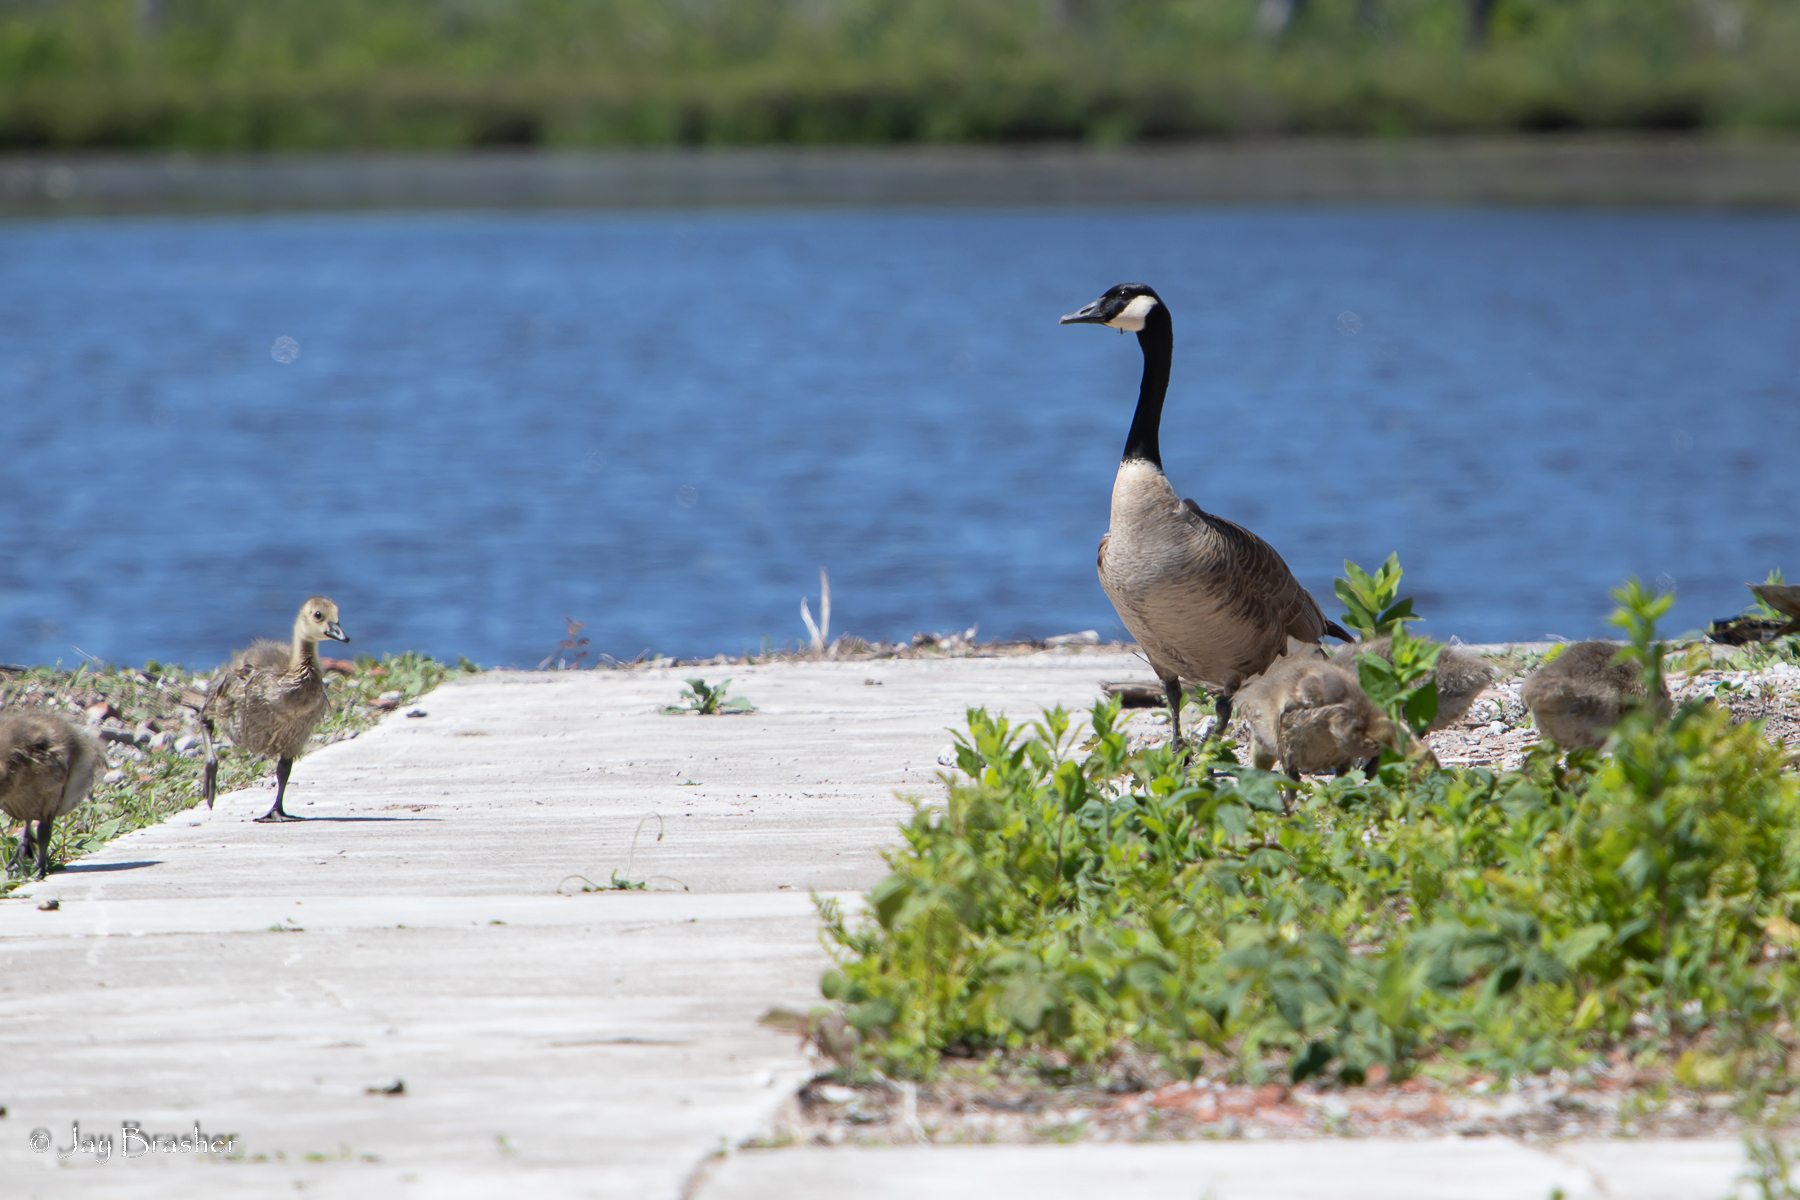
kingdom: Animalia
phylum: Chordata
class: Aves
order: Anseriformes
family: Anatidae
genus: Branta
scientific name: Branta canadensis
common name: Canada goose
